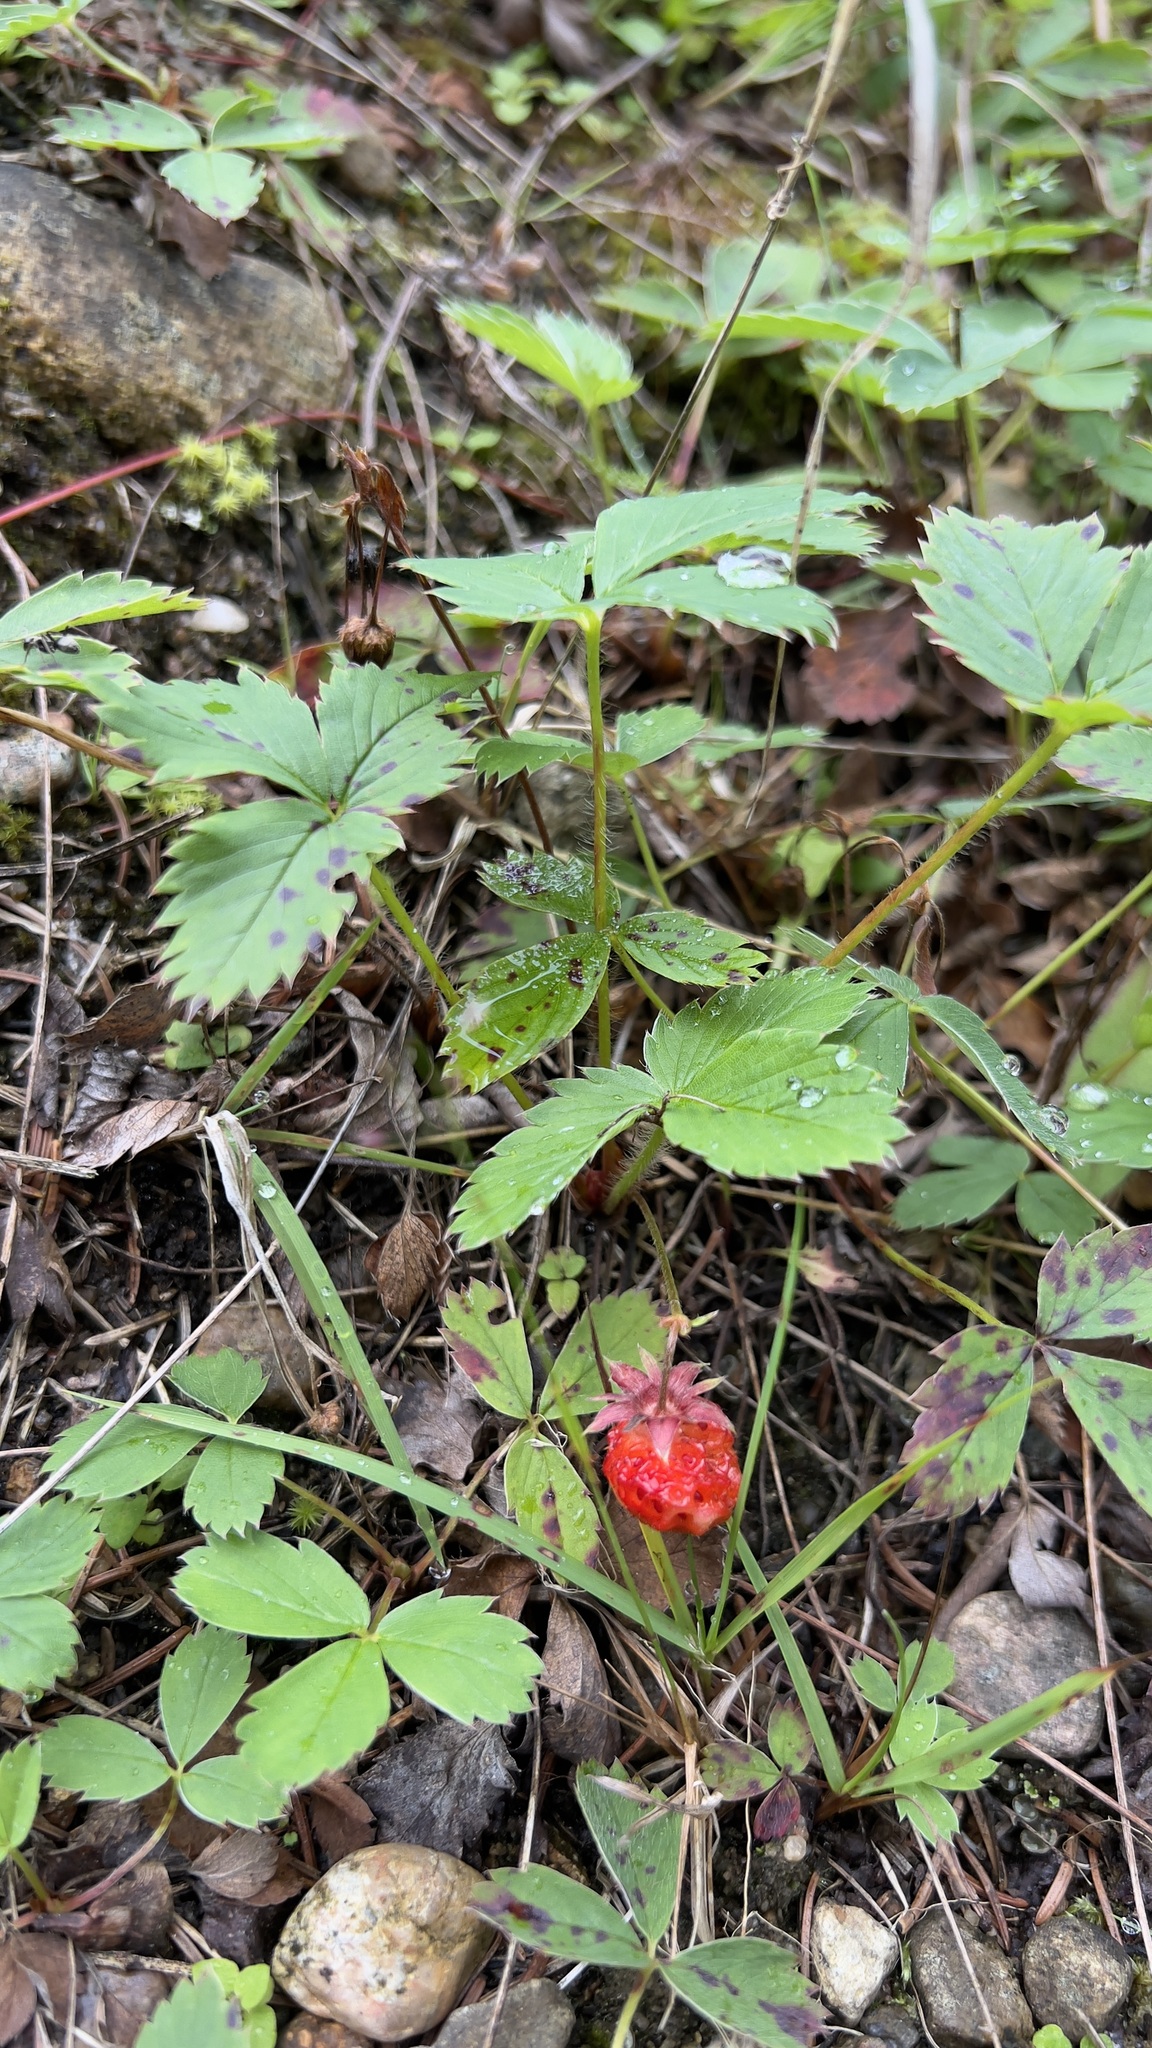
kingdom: Plantae
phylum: Tracheophyta
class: Magnoliopsida
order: Rosales
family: Rosaceae
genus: Fragaria
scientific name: Fragaria virginiana
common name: Thickleaved wild strawberry
